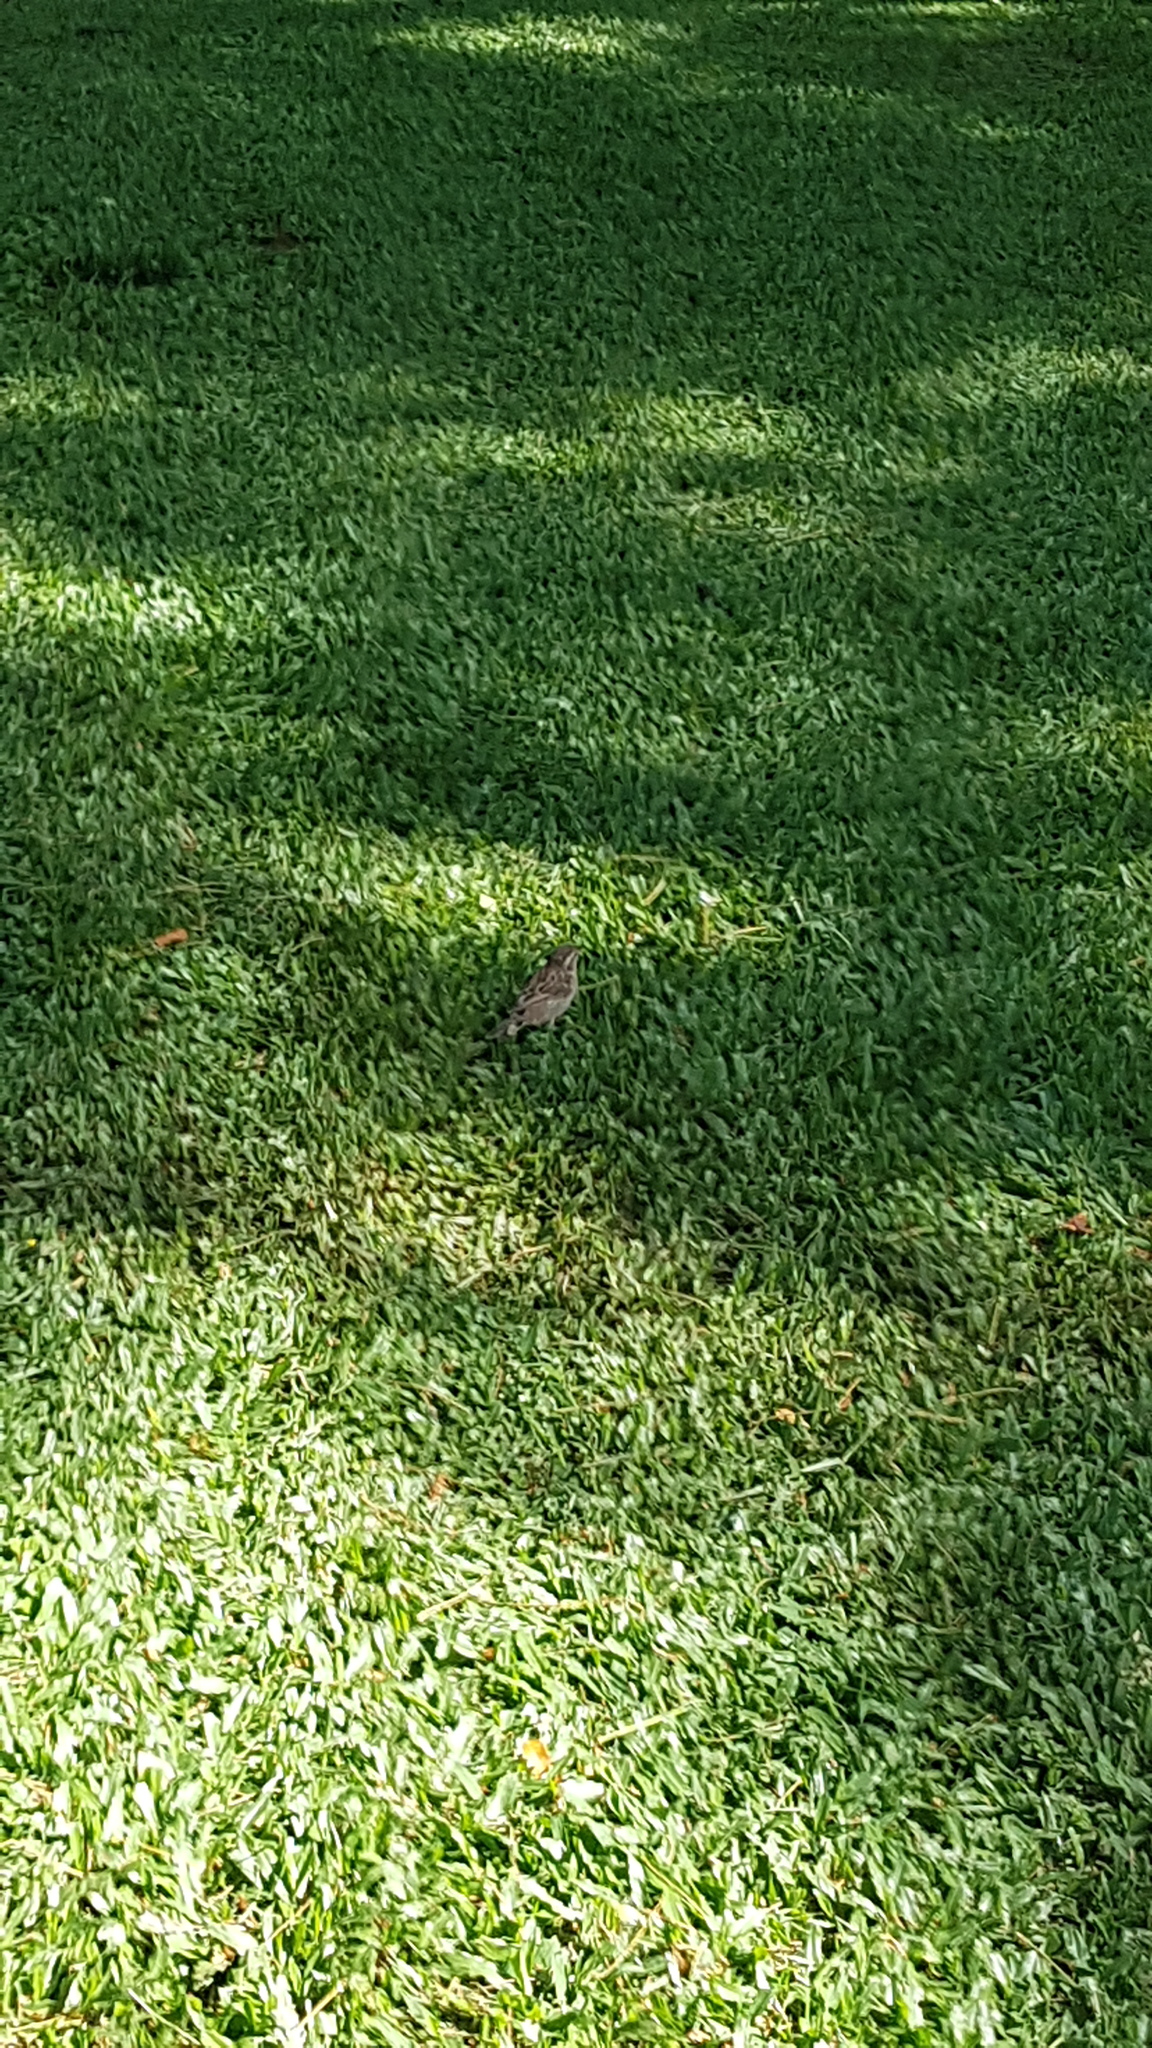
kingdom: Animalia
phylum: Chordata
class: Aves
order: Passeriformes
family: Passeridae
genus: Passer
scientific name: Passer domesticus
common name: House sparrow
